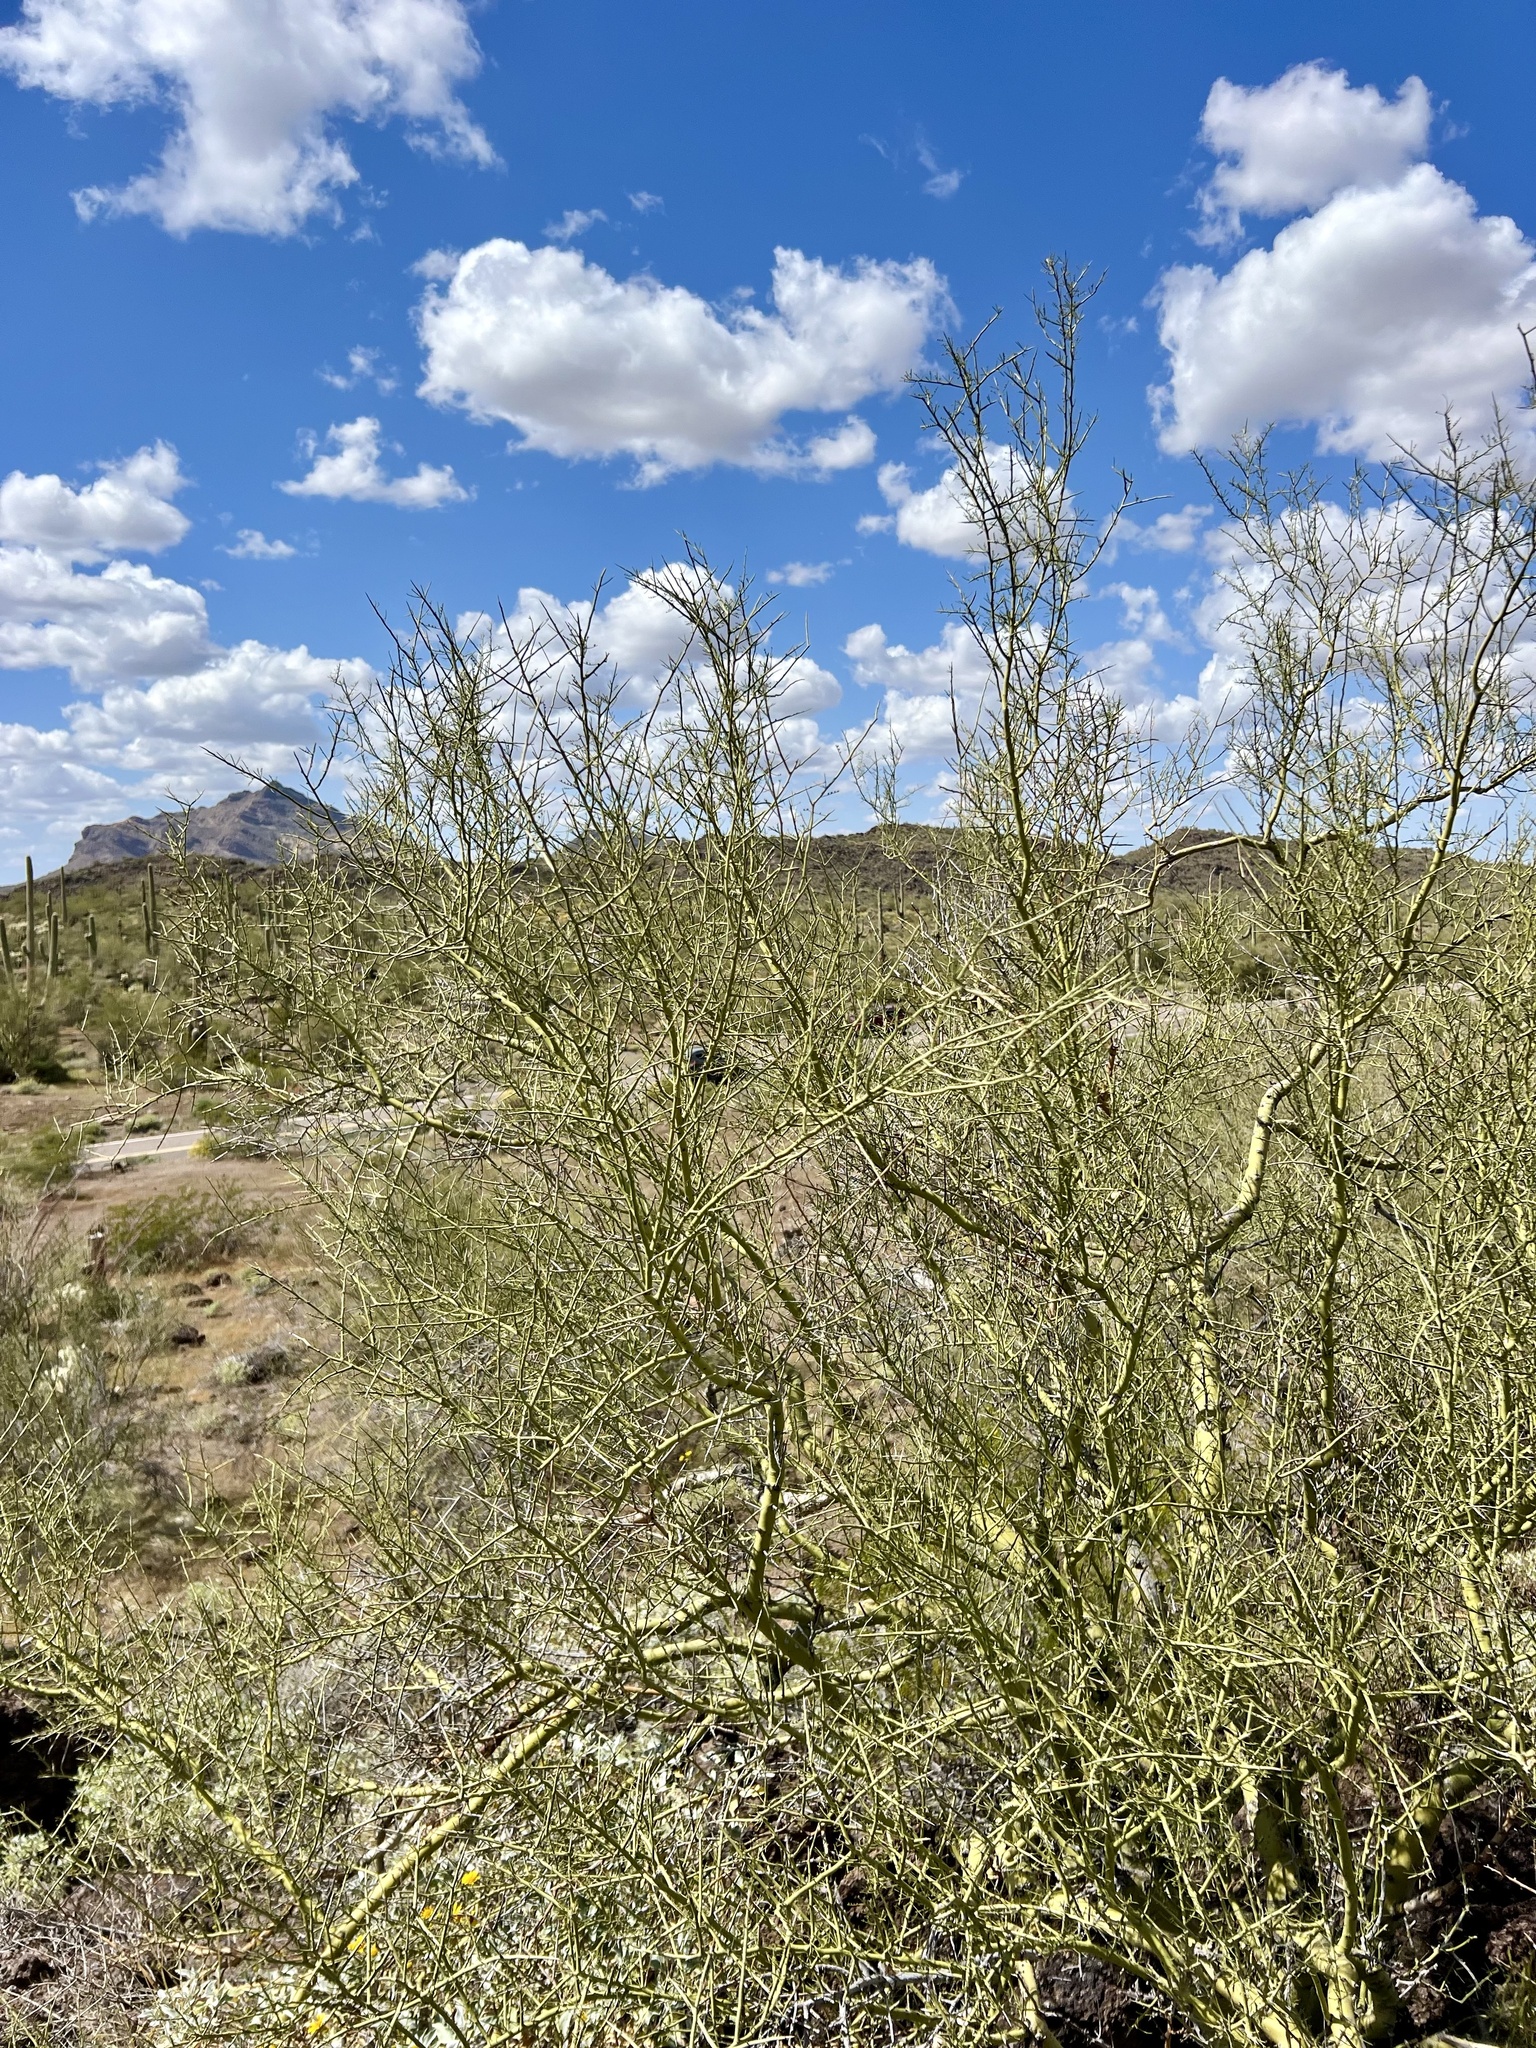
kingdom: Plantae
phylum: Tracheophyta
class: Magnoliopsida
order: Fabales
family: Fabaceae
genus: Parkinsonia
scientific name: Parkinsonia microphylla
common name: Yellow paloverde
